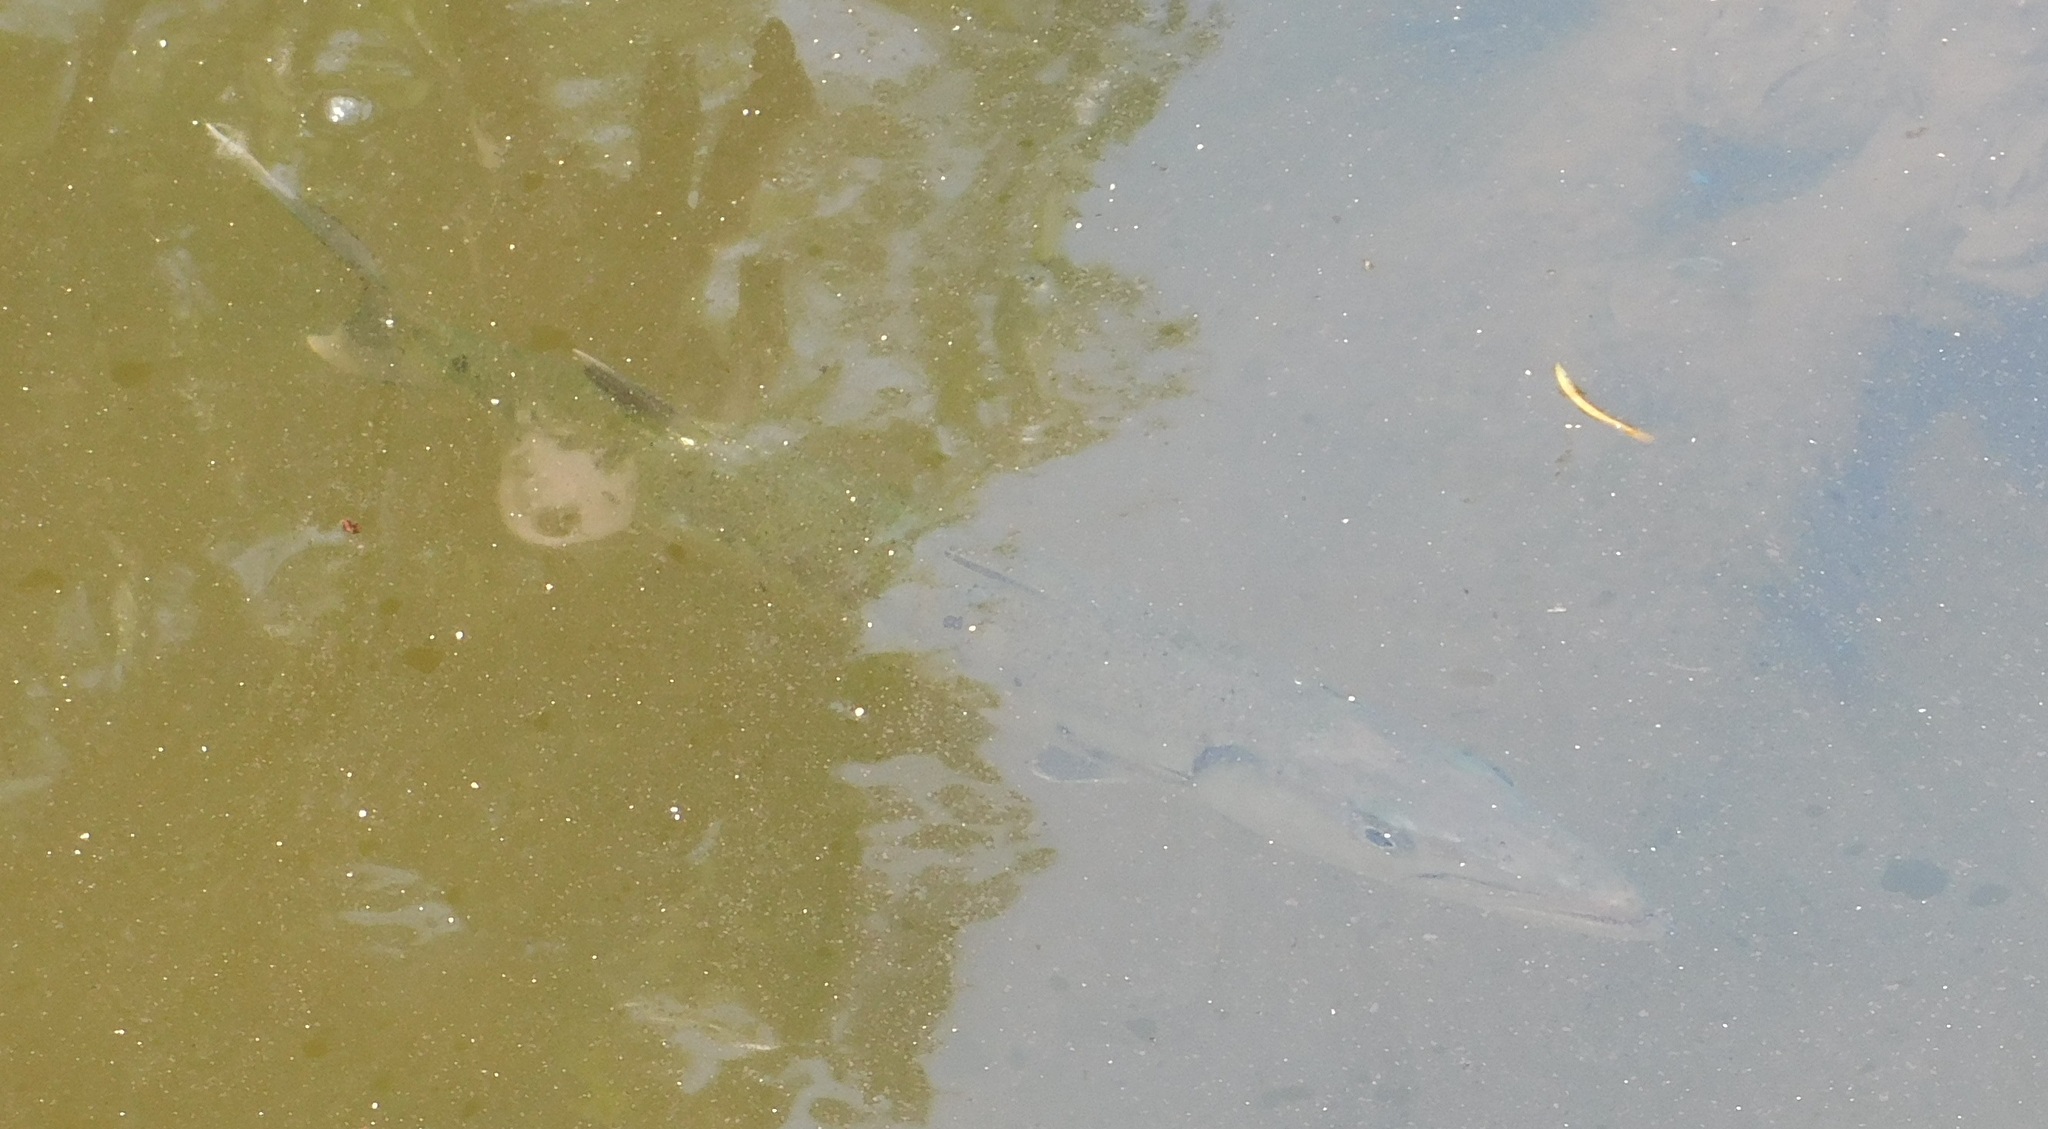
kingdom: Animalia
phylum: Chordata
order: Perciformes
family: Sphyraenidae
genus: Sphyraena
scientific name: Sphyraena barracuda
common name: Great barracuda
